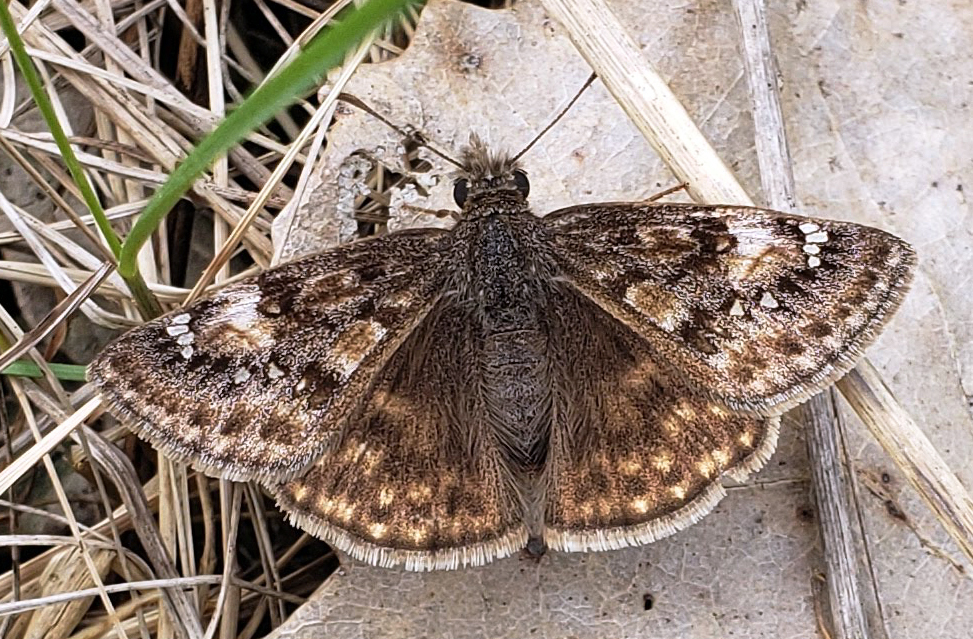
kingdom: Animalia
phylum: Arthropoda
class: Insecta
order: Lepidoptera
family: Hesperiidae
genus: Erynnis
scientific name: Erynnis juvenalis
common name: Juvenal's duskywing
